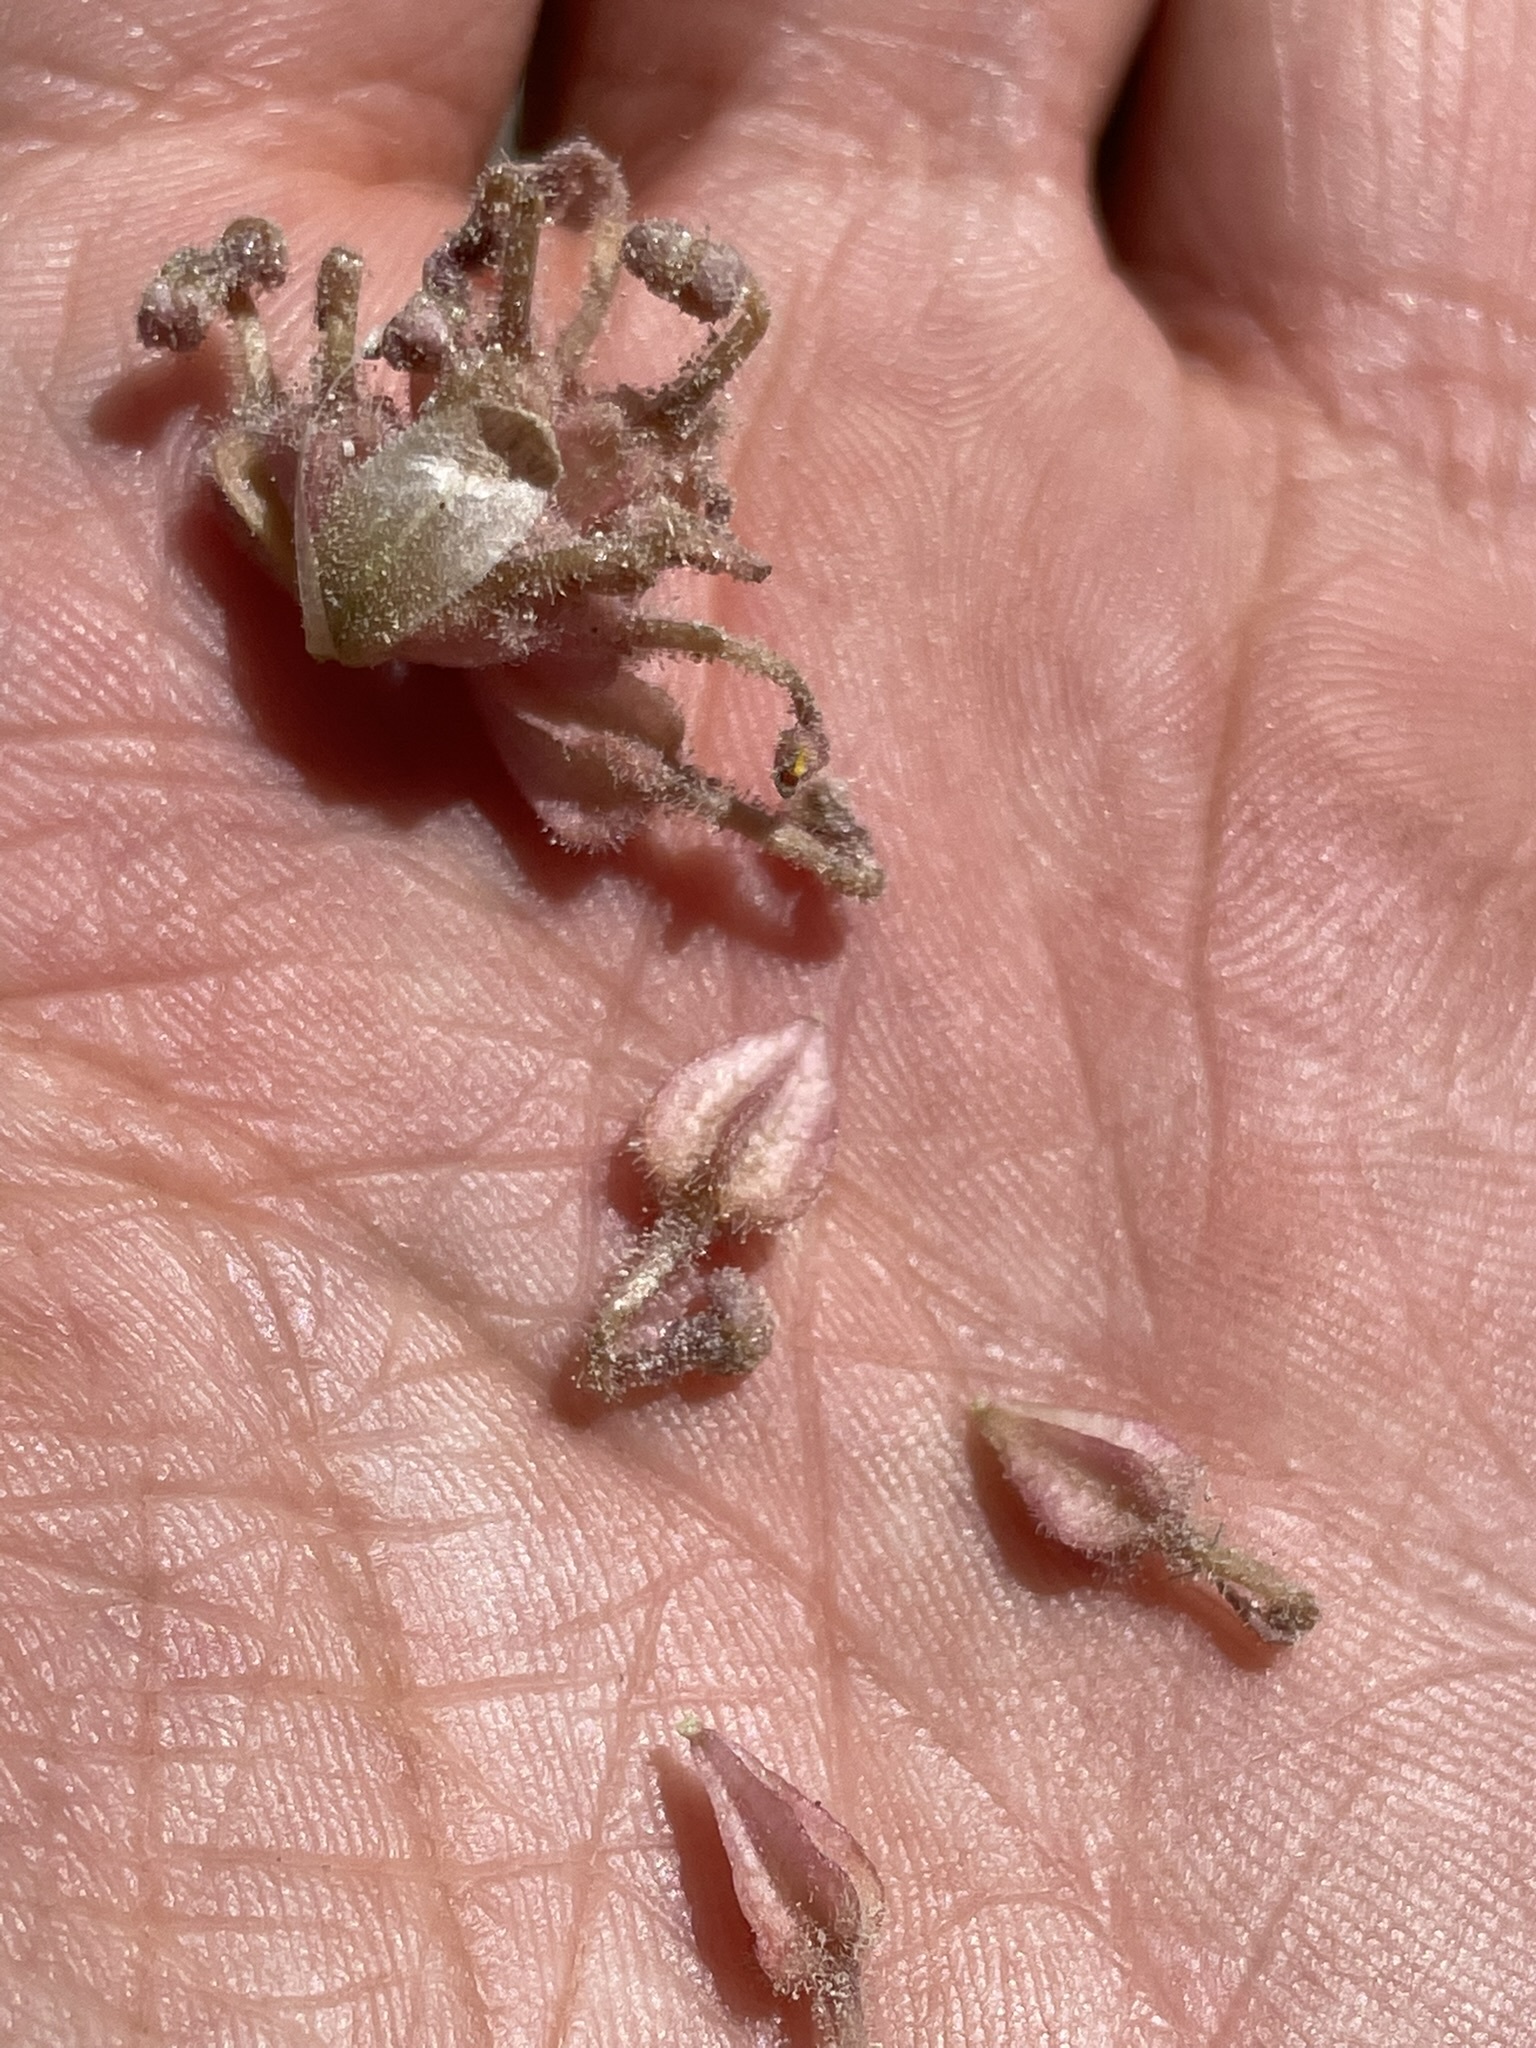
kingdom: Plantae
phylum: Tracheophyta
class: Magnoliopsida
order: Caryophyllales
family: Nyctaginaceae
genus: Abronia
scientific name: Abronia nana
